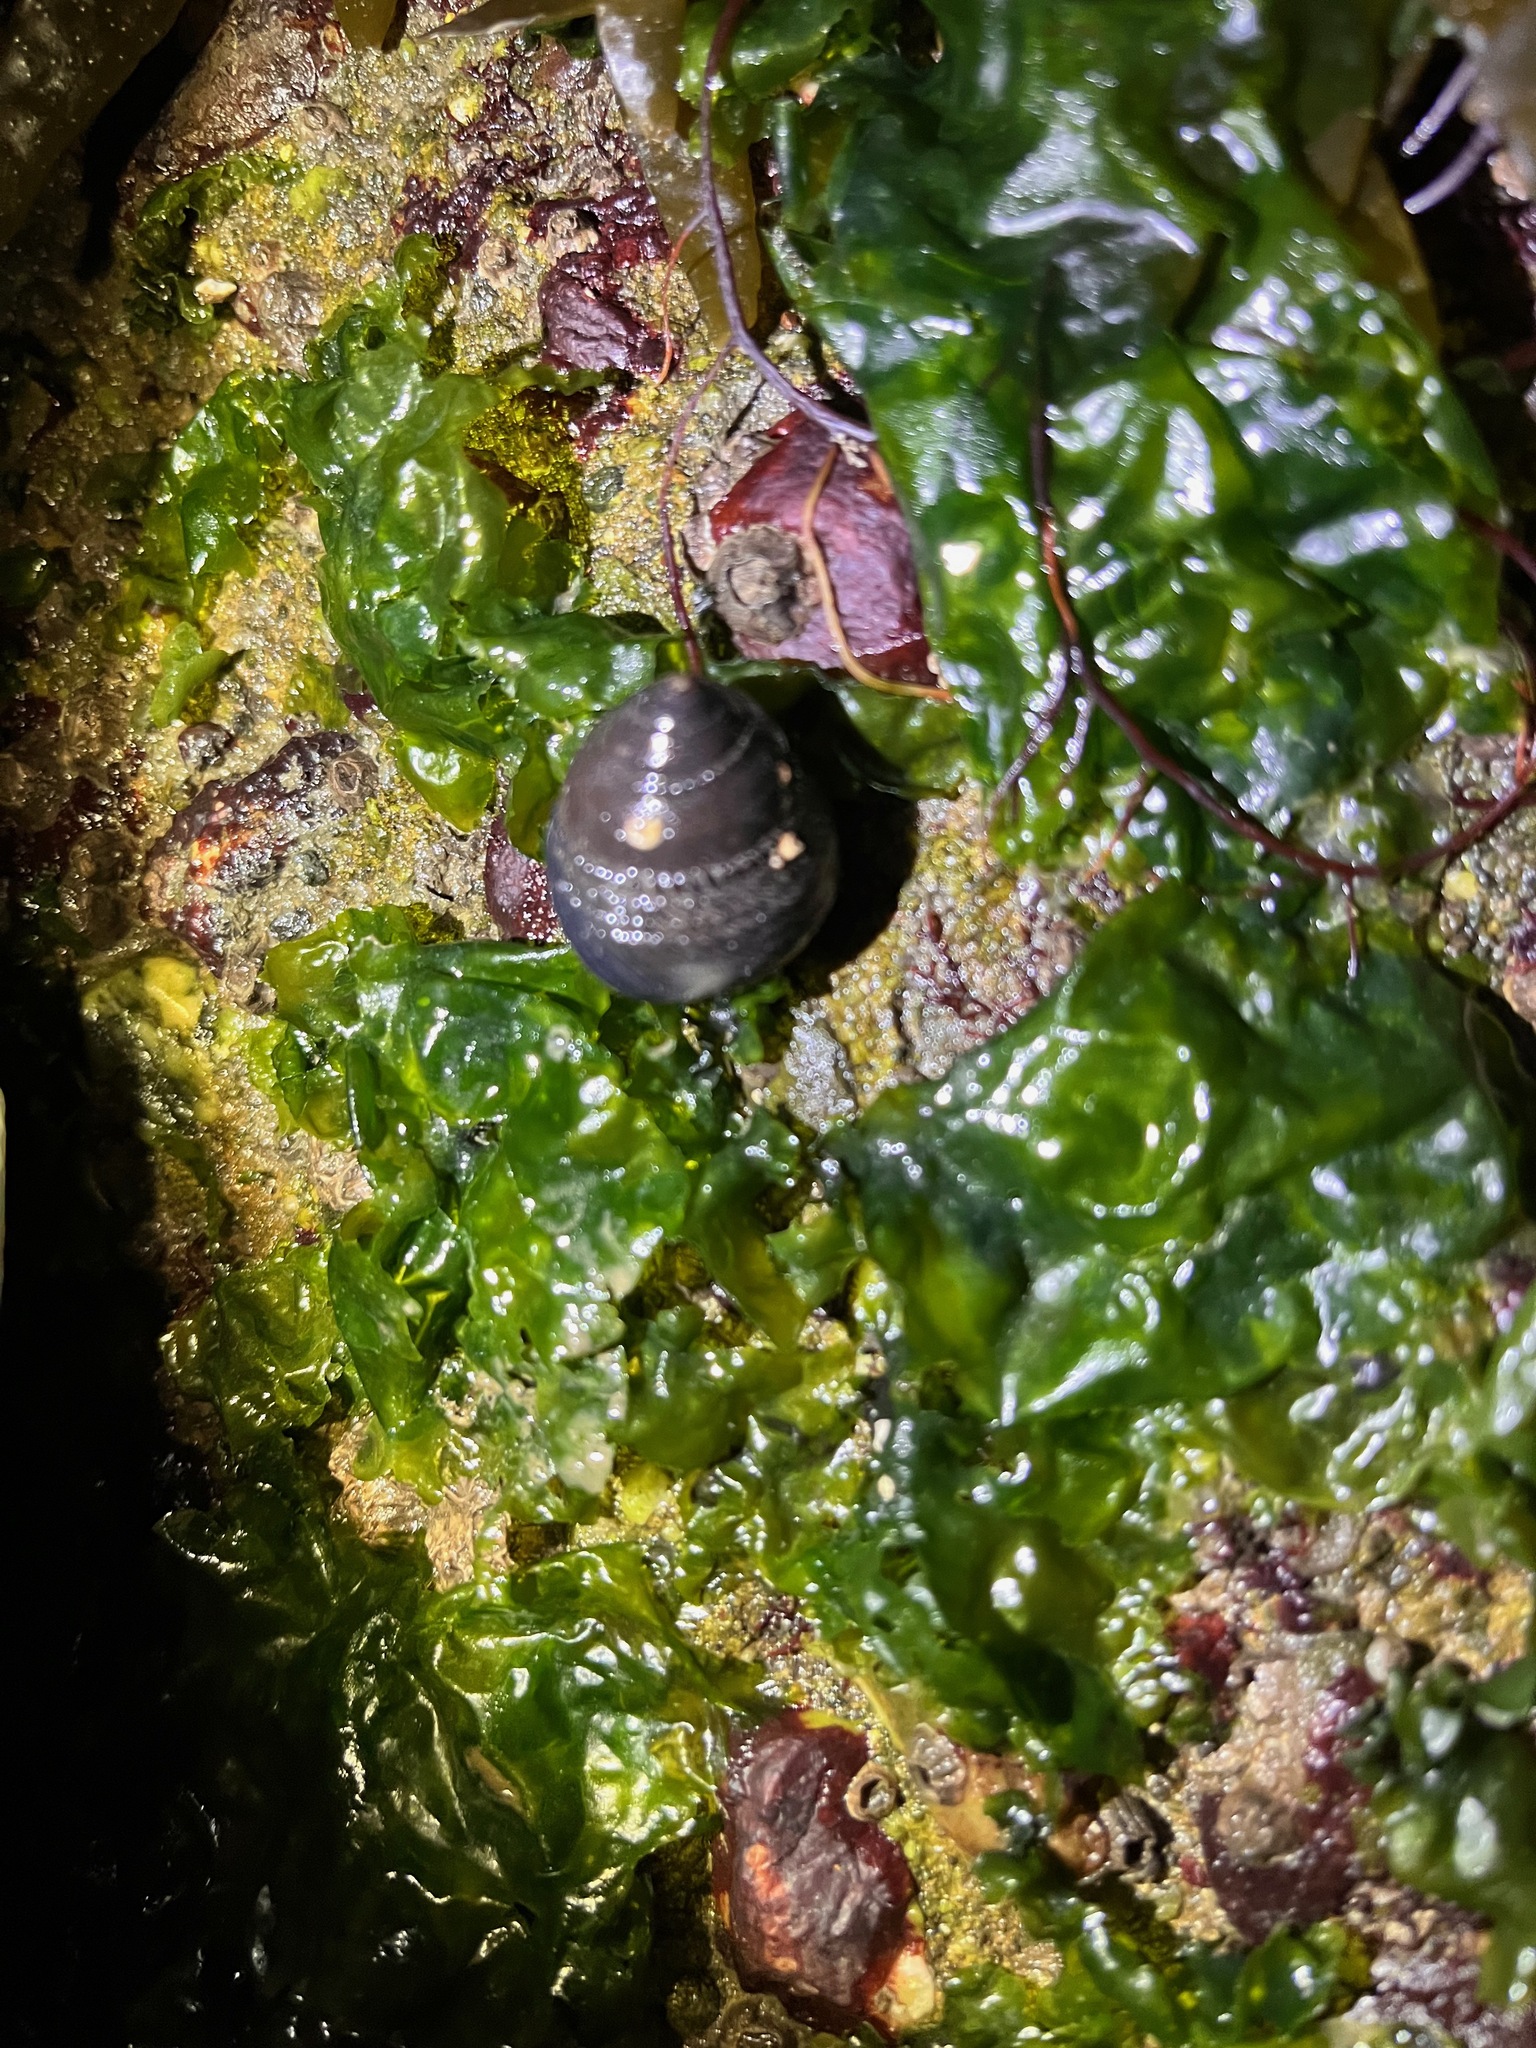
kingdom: Animalia
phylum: Mollusca
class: Gastropoda
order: Trochida
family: Tegulidae
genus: Tegula
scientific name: Tegula funebralis
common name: Black tegula
